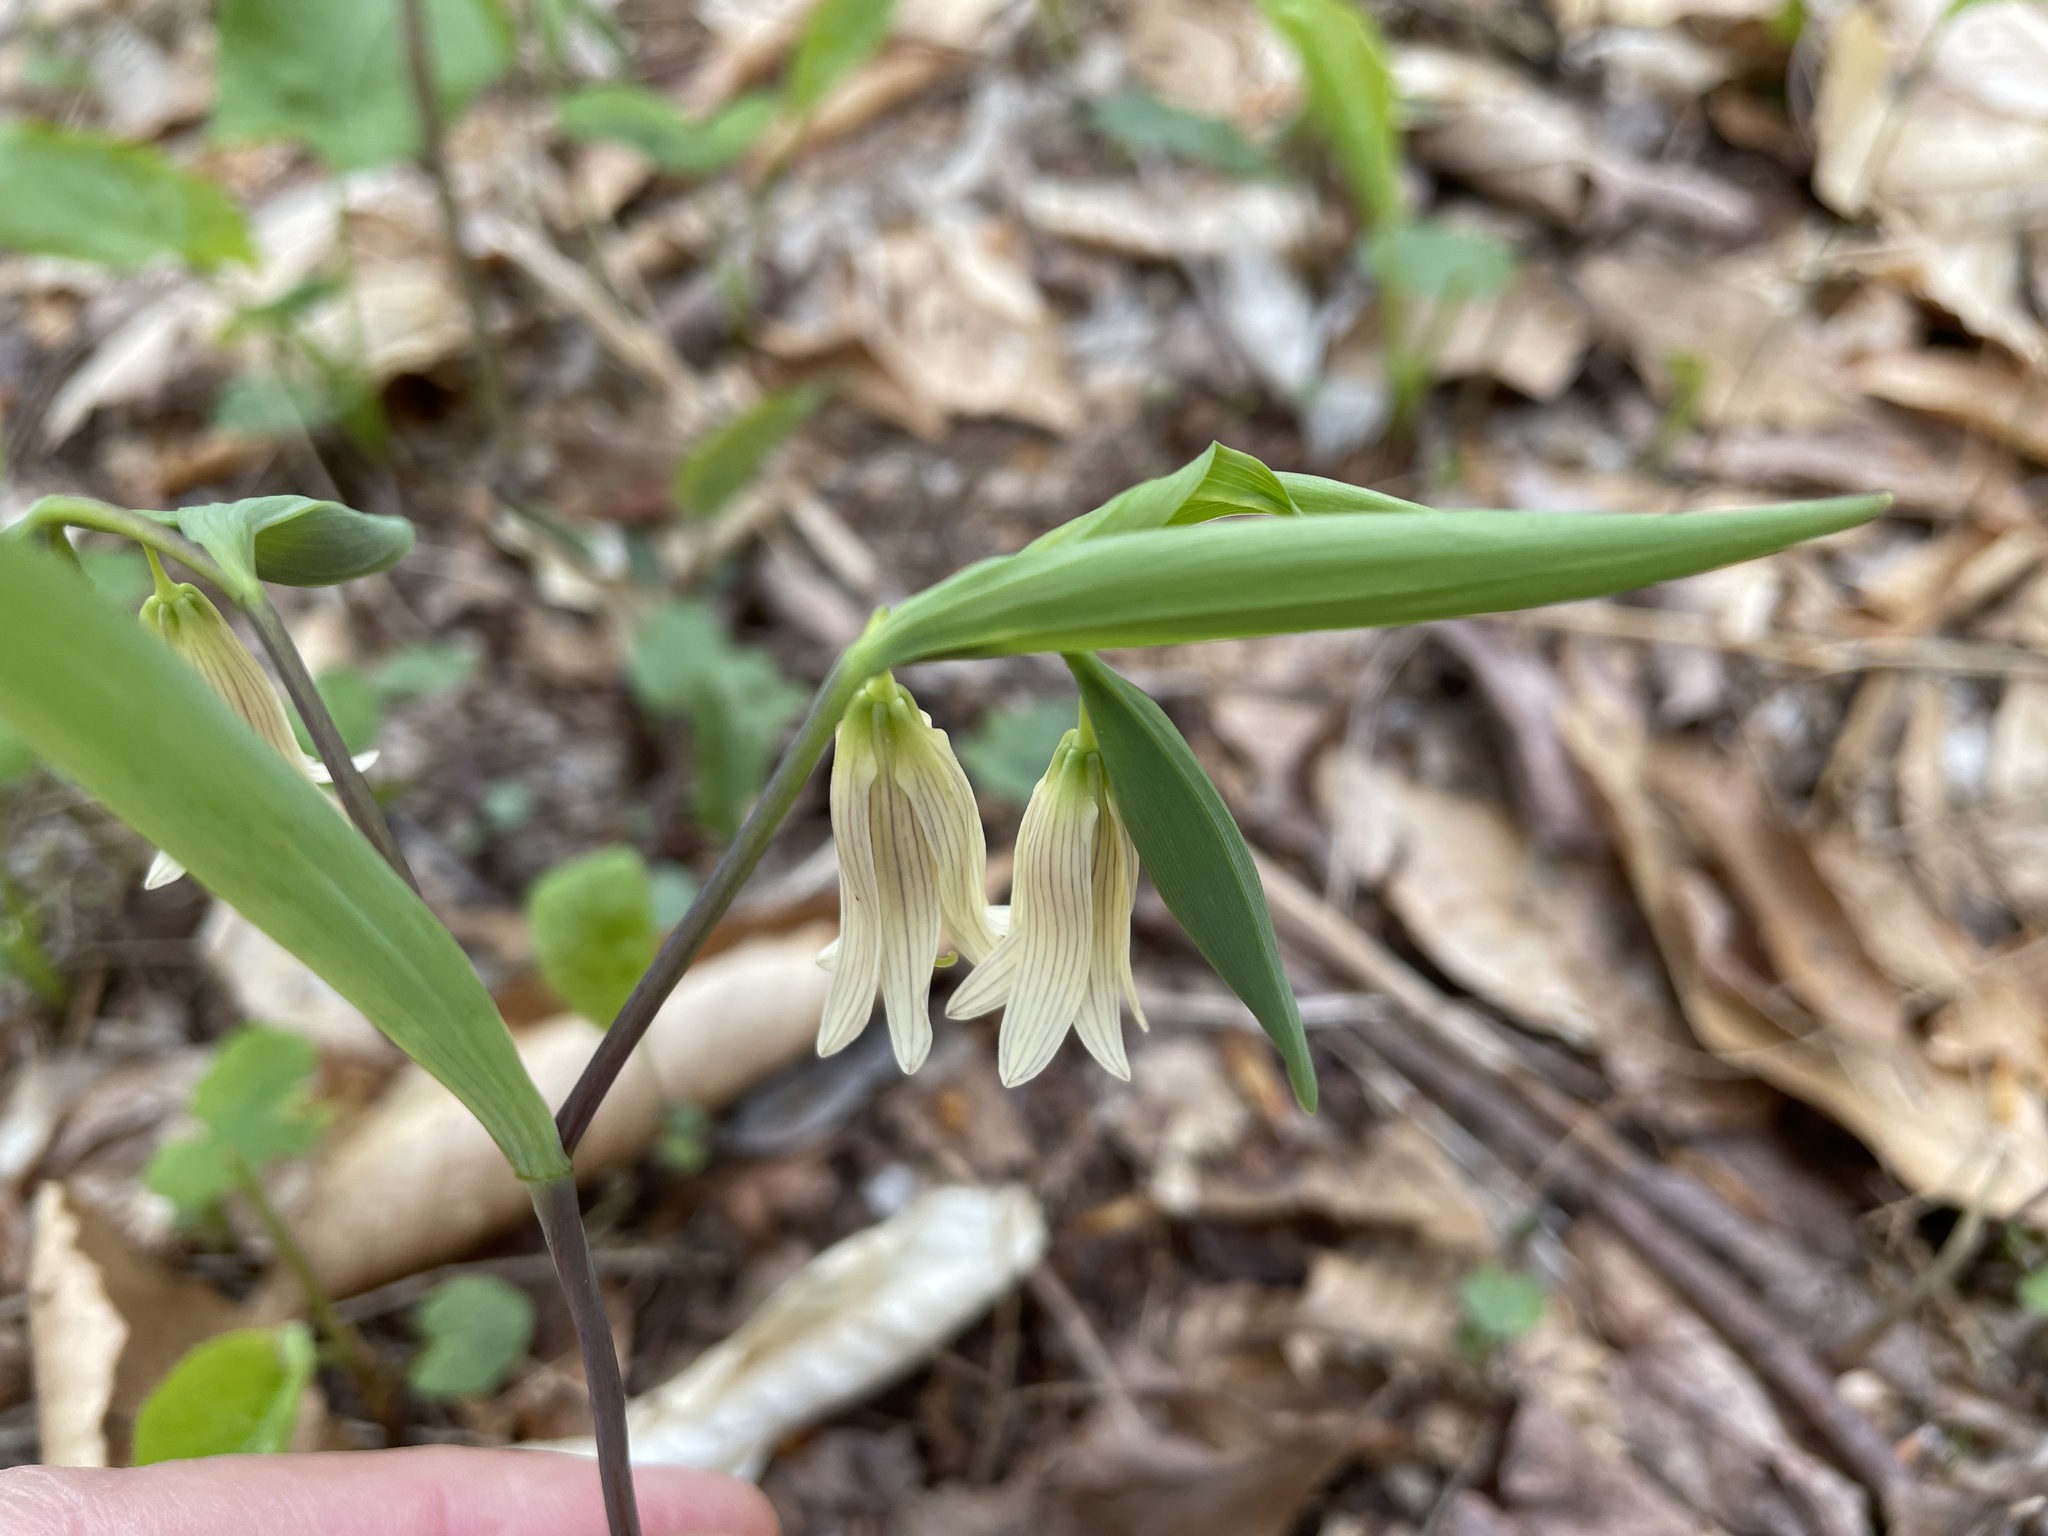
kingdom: Plantae
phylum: Tracheophyta
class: Liliopsida
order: Liliales
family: Colchicaceae
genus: Uvularia
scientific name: Uvularia sessilifolia
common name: Straw-lily
